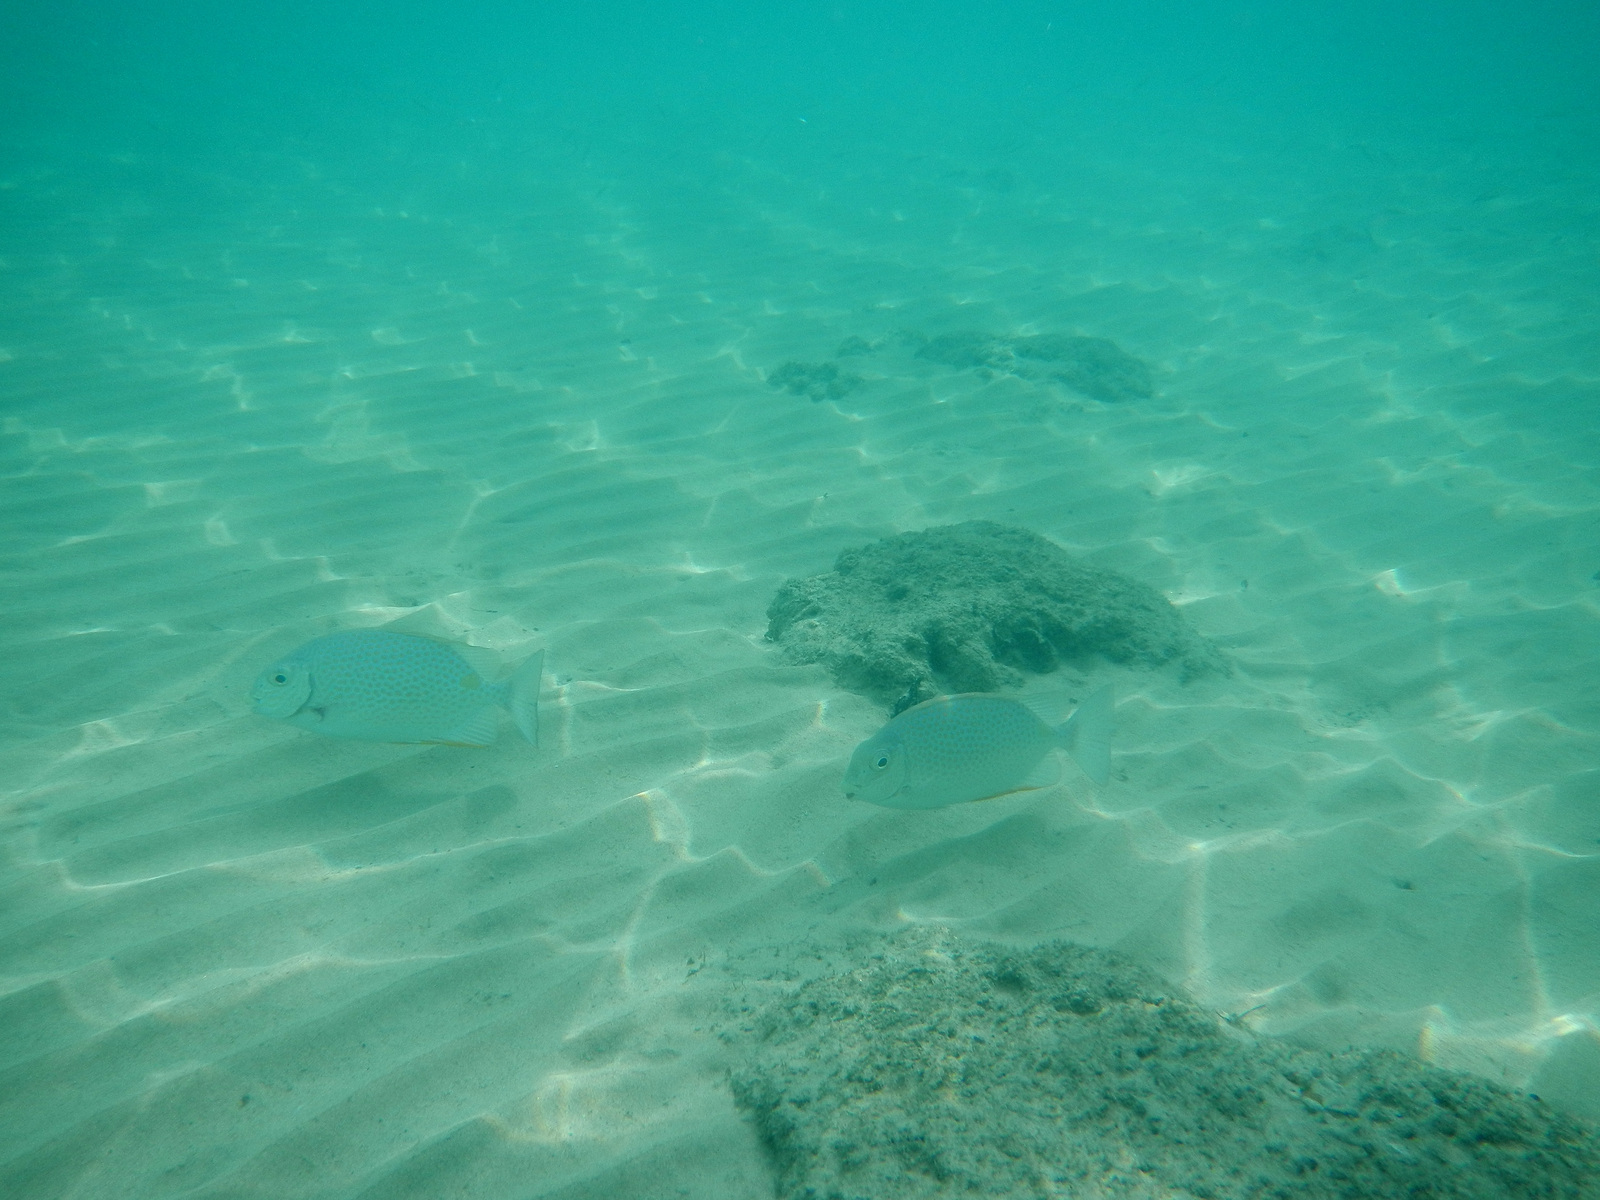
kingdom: Animalia
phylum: Chordata
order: Perciformes
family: Siganidae
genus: Siganus
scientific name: Siganus guttatus
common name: Golden rabbitfish
